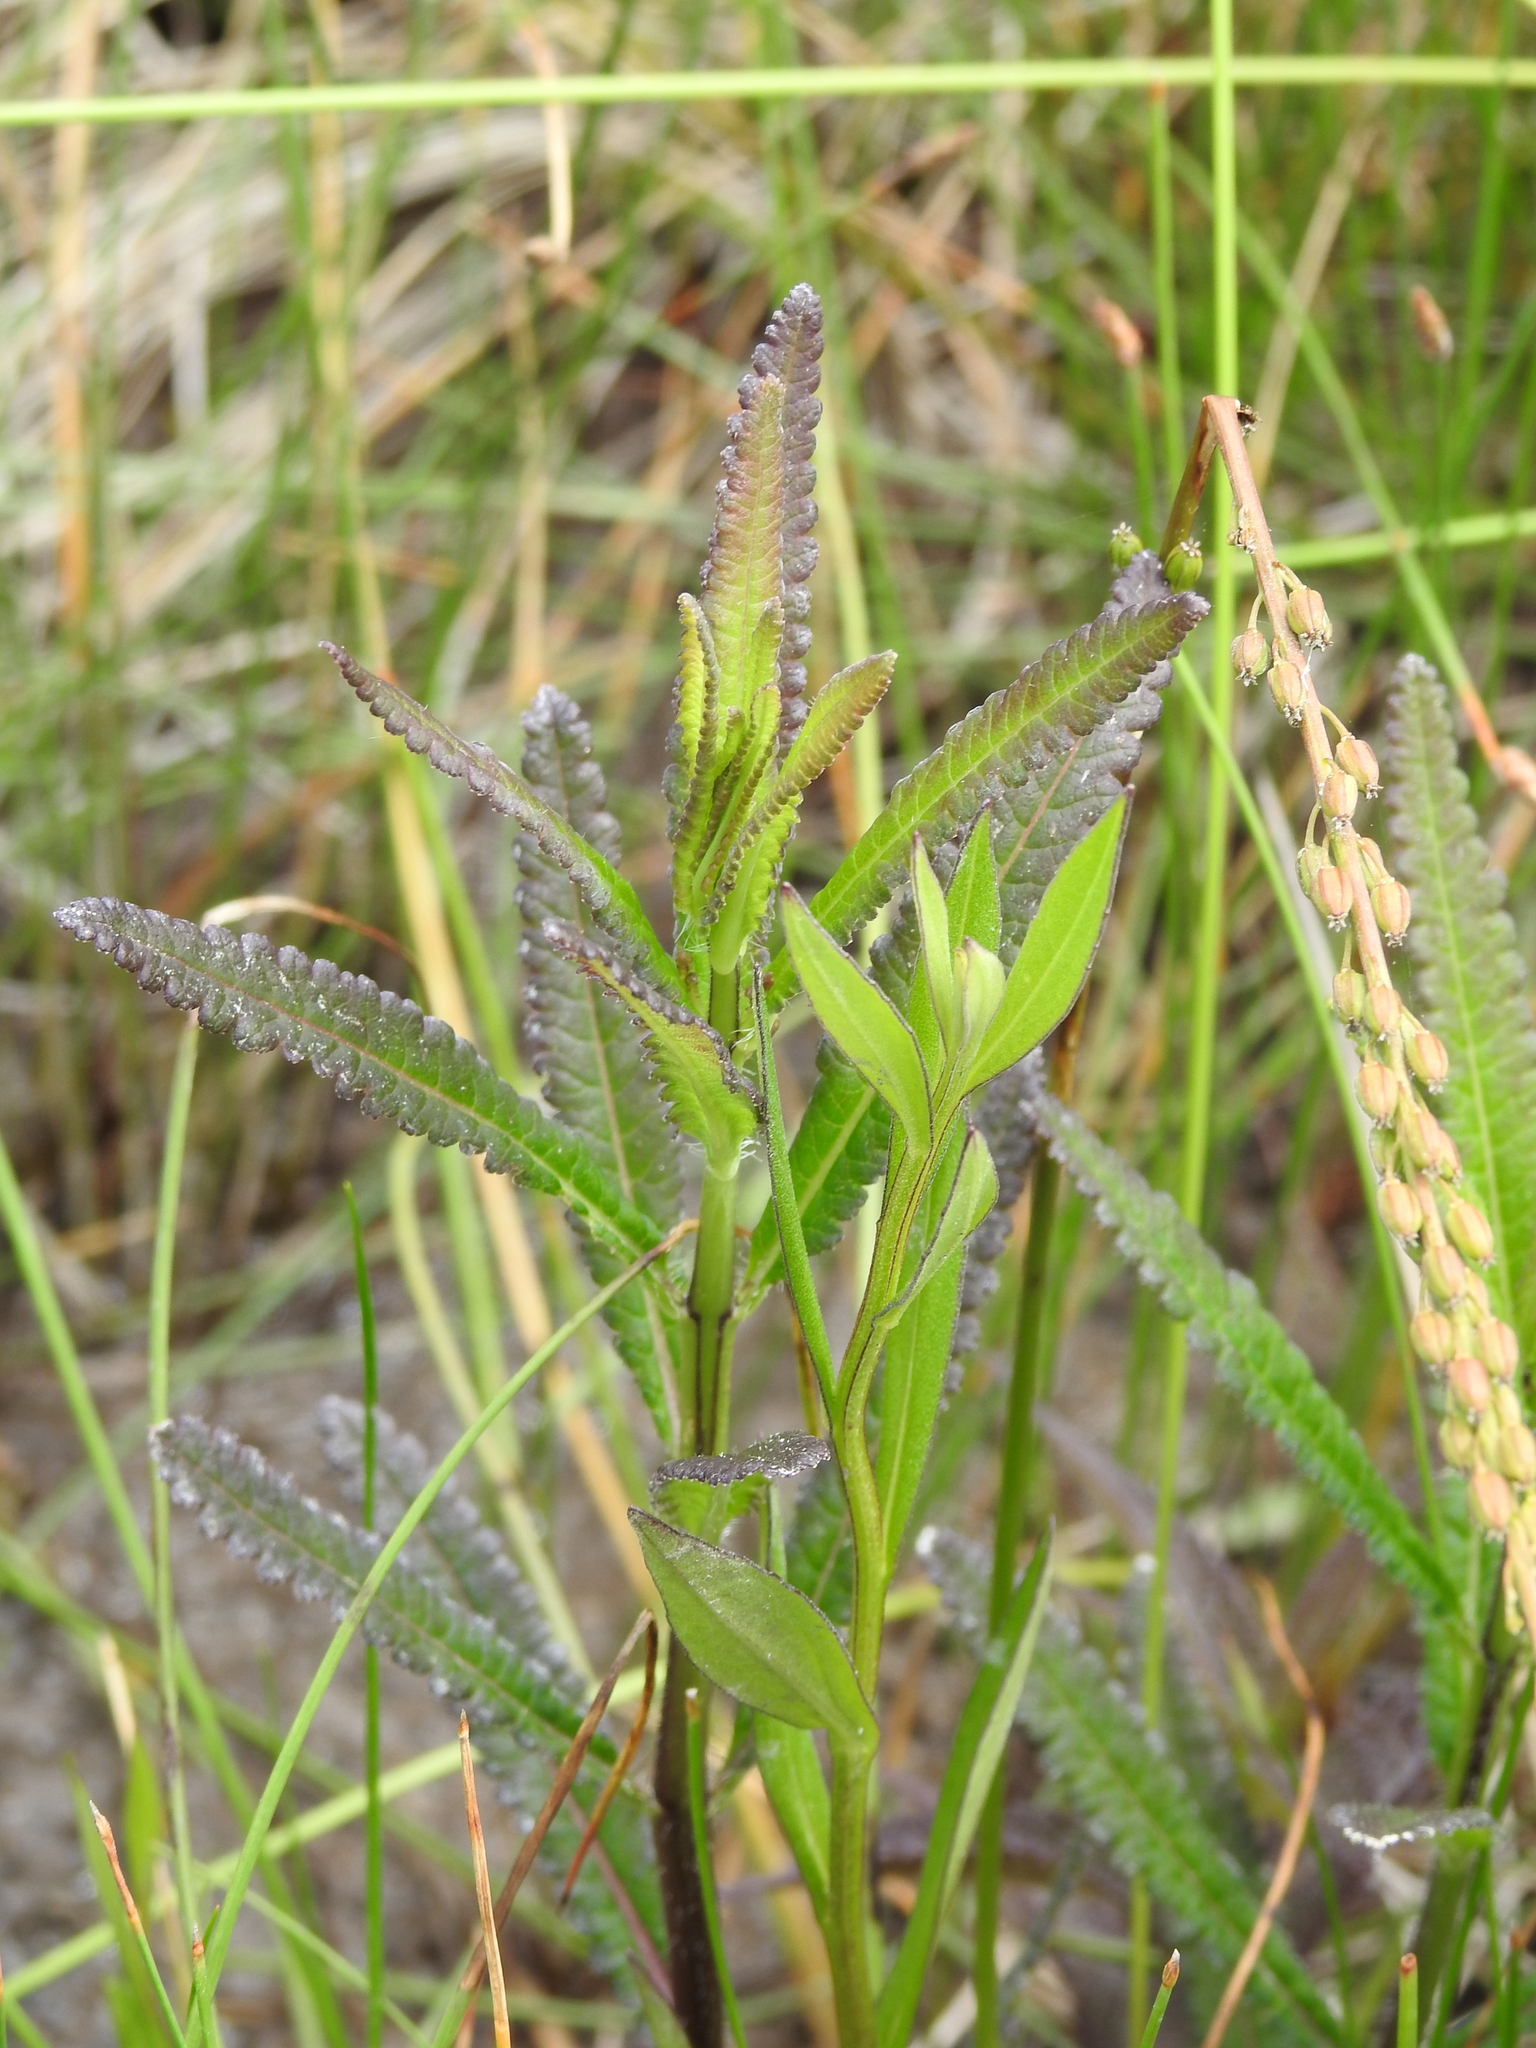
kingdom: Plantae
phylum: Tracheophyta
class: Magnoliopsida
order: Lamiales
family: Orobanchaceae
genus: Pedicularis
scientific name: Pedicularis lanceolata
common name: Swamp lousewort
